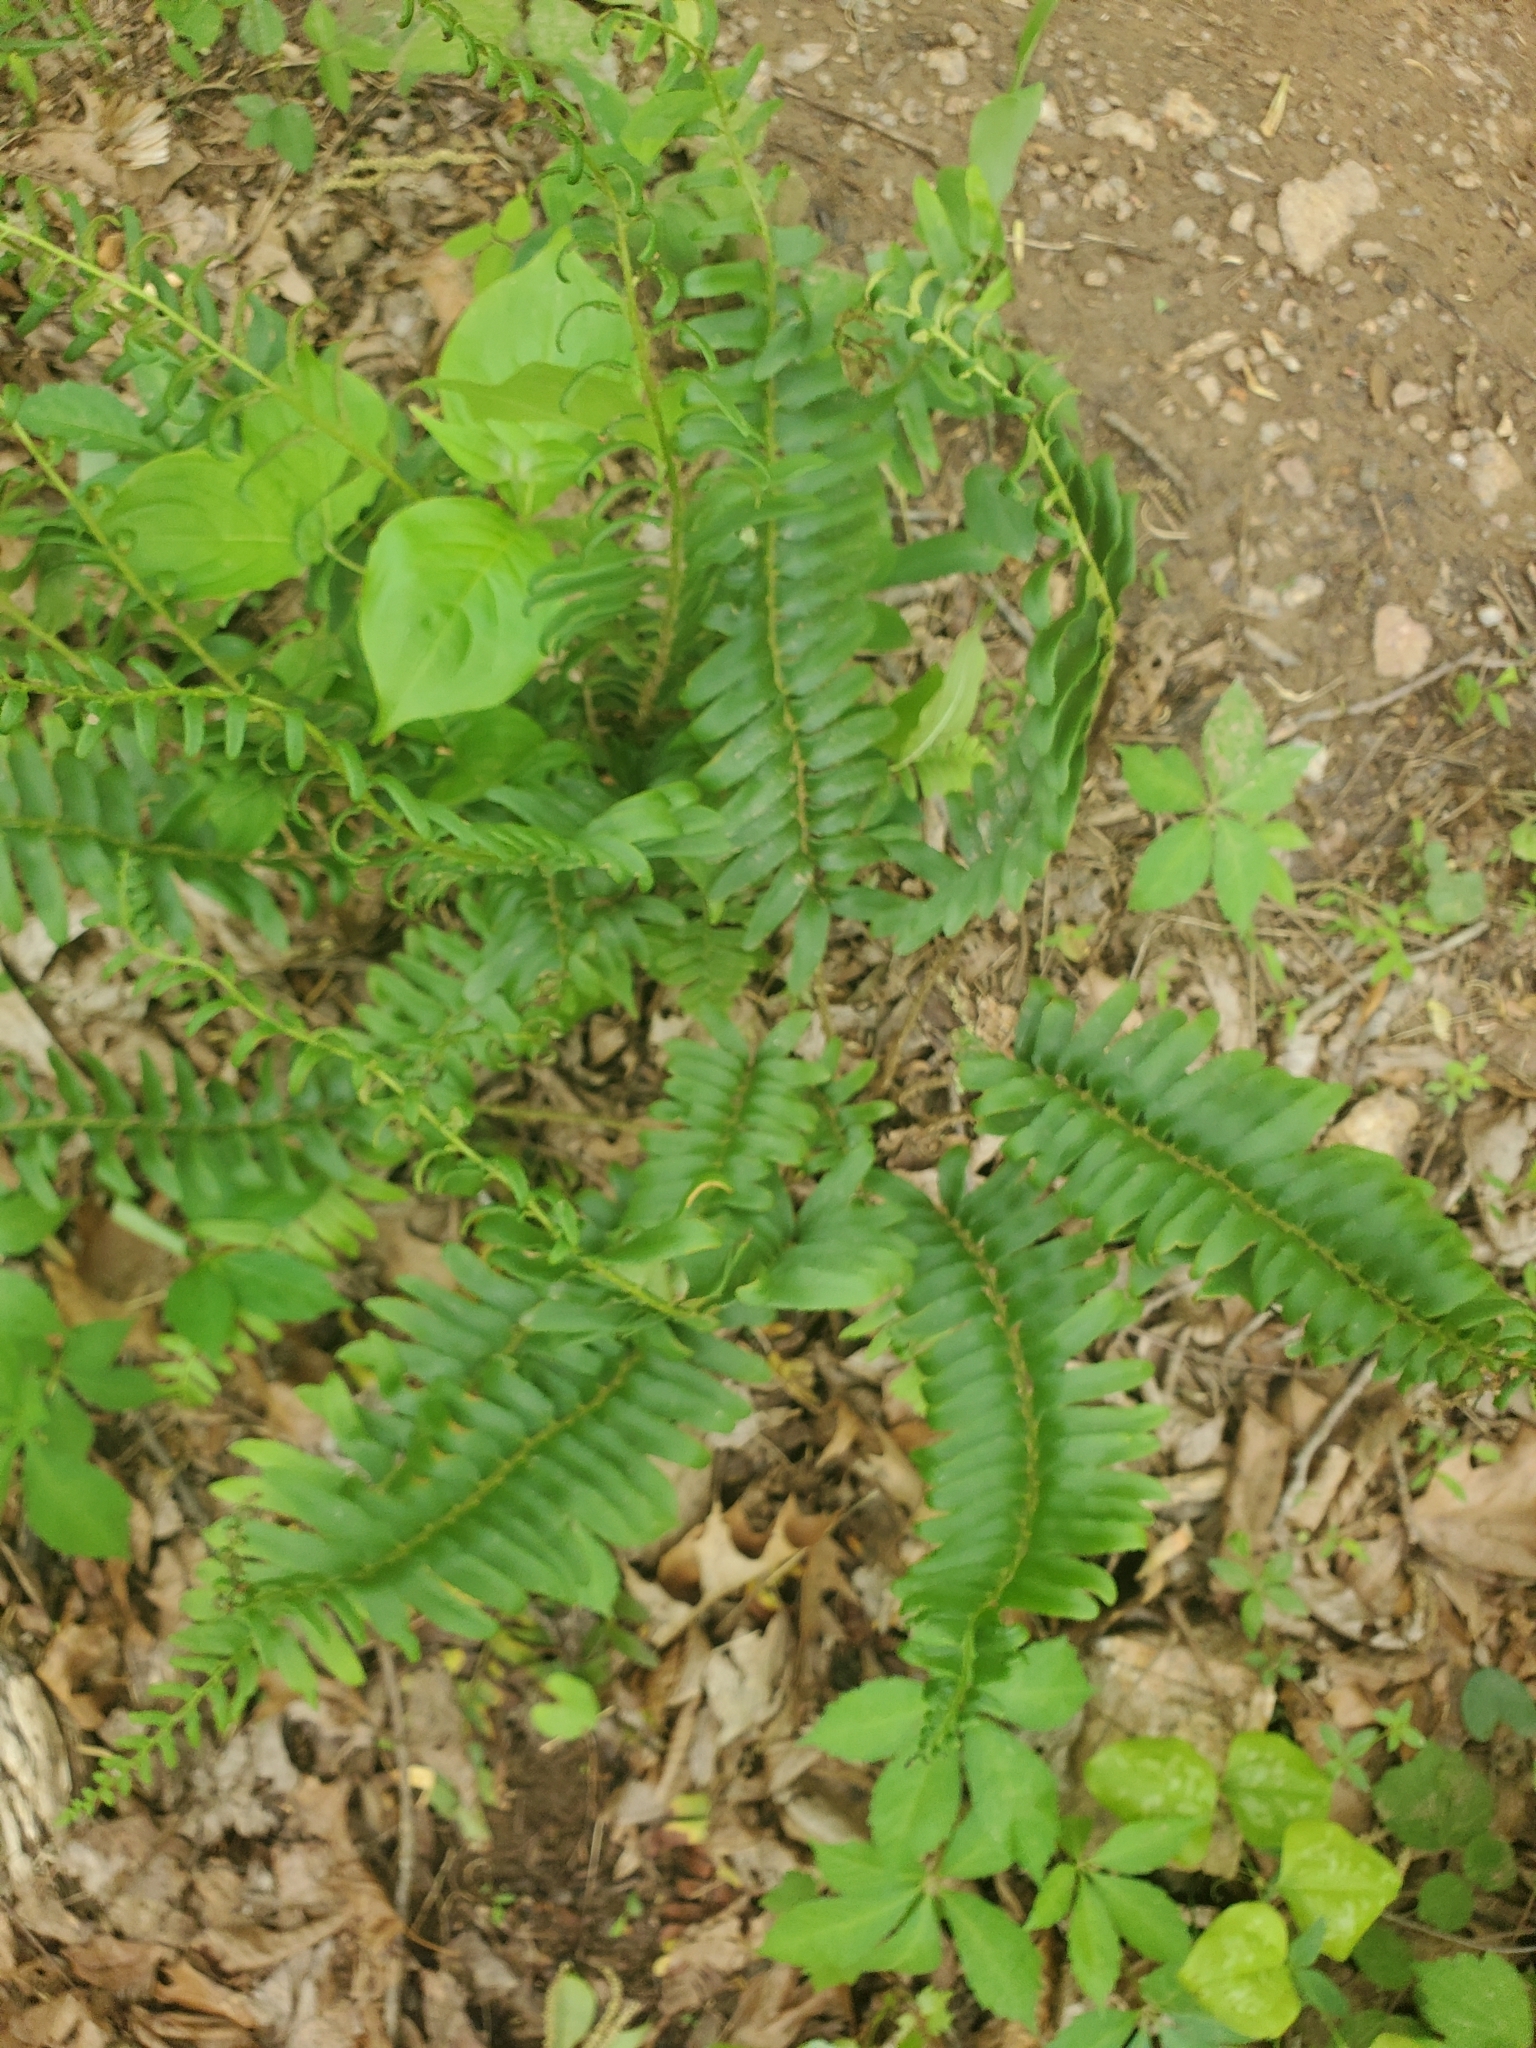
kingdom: Plantae
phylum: Tracheophyta
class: Polypodiopsida
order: Polypodiales
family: Dryopteridaceae
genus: Polystichum
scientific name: Polystichum acrostichoides
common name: Christmas fern
